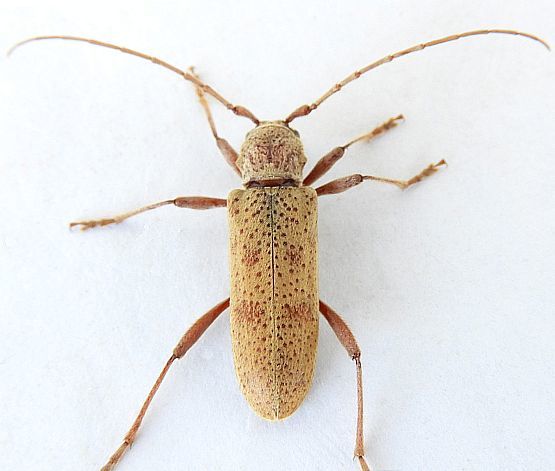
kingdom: Animalia
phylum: Arthropoda
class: Insecta
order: Coleoptera
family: Cerambycidae
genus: Brothylus
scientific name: Brothylus gemmulatus
